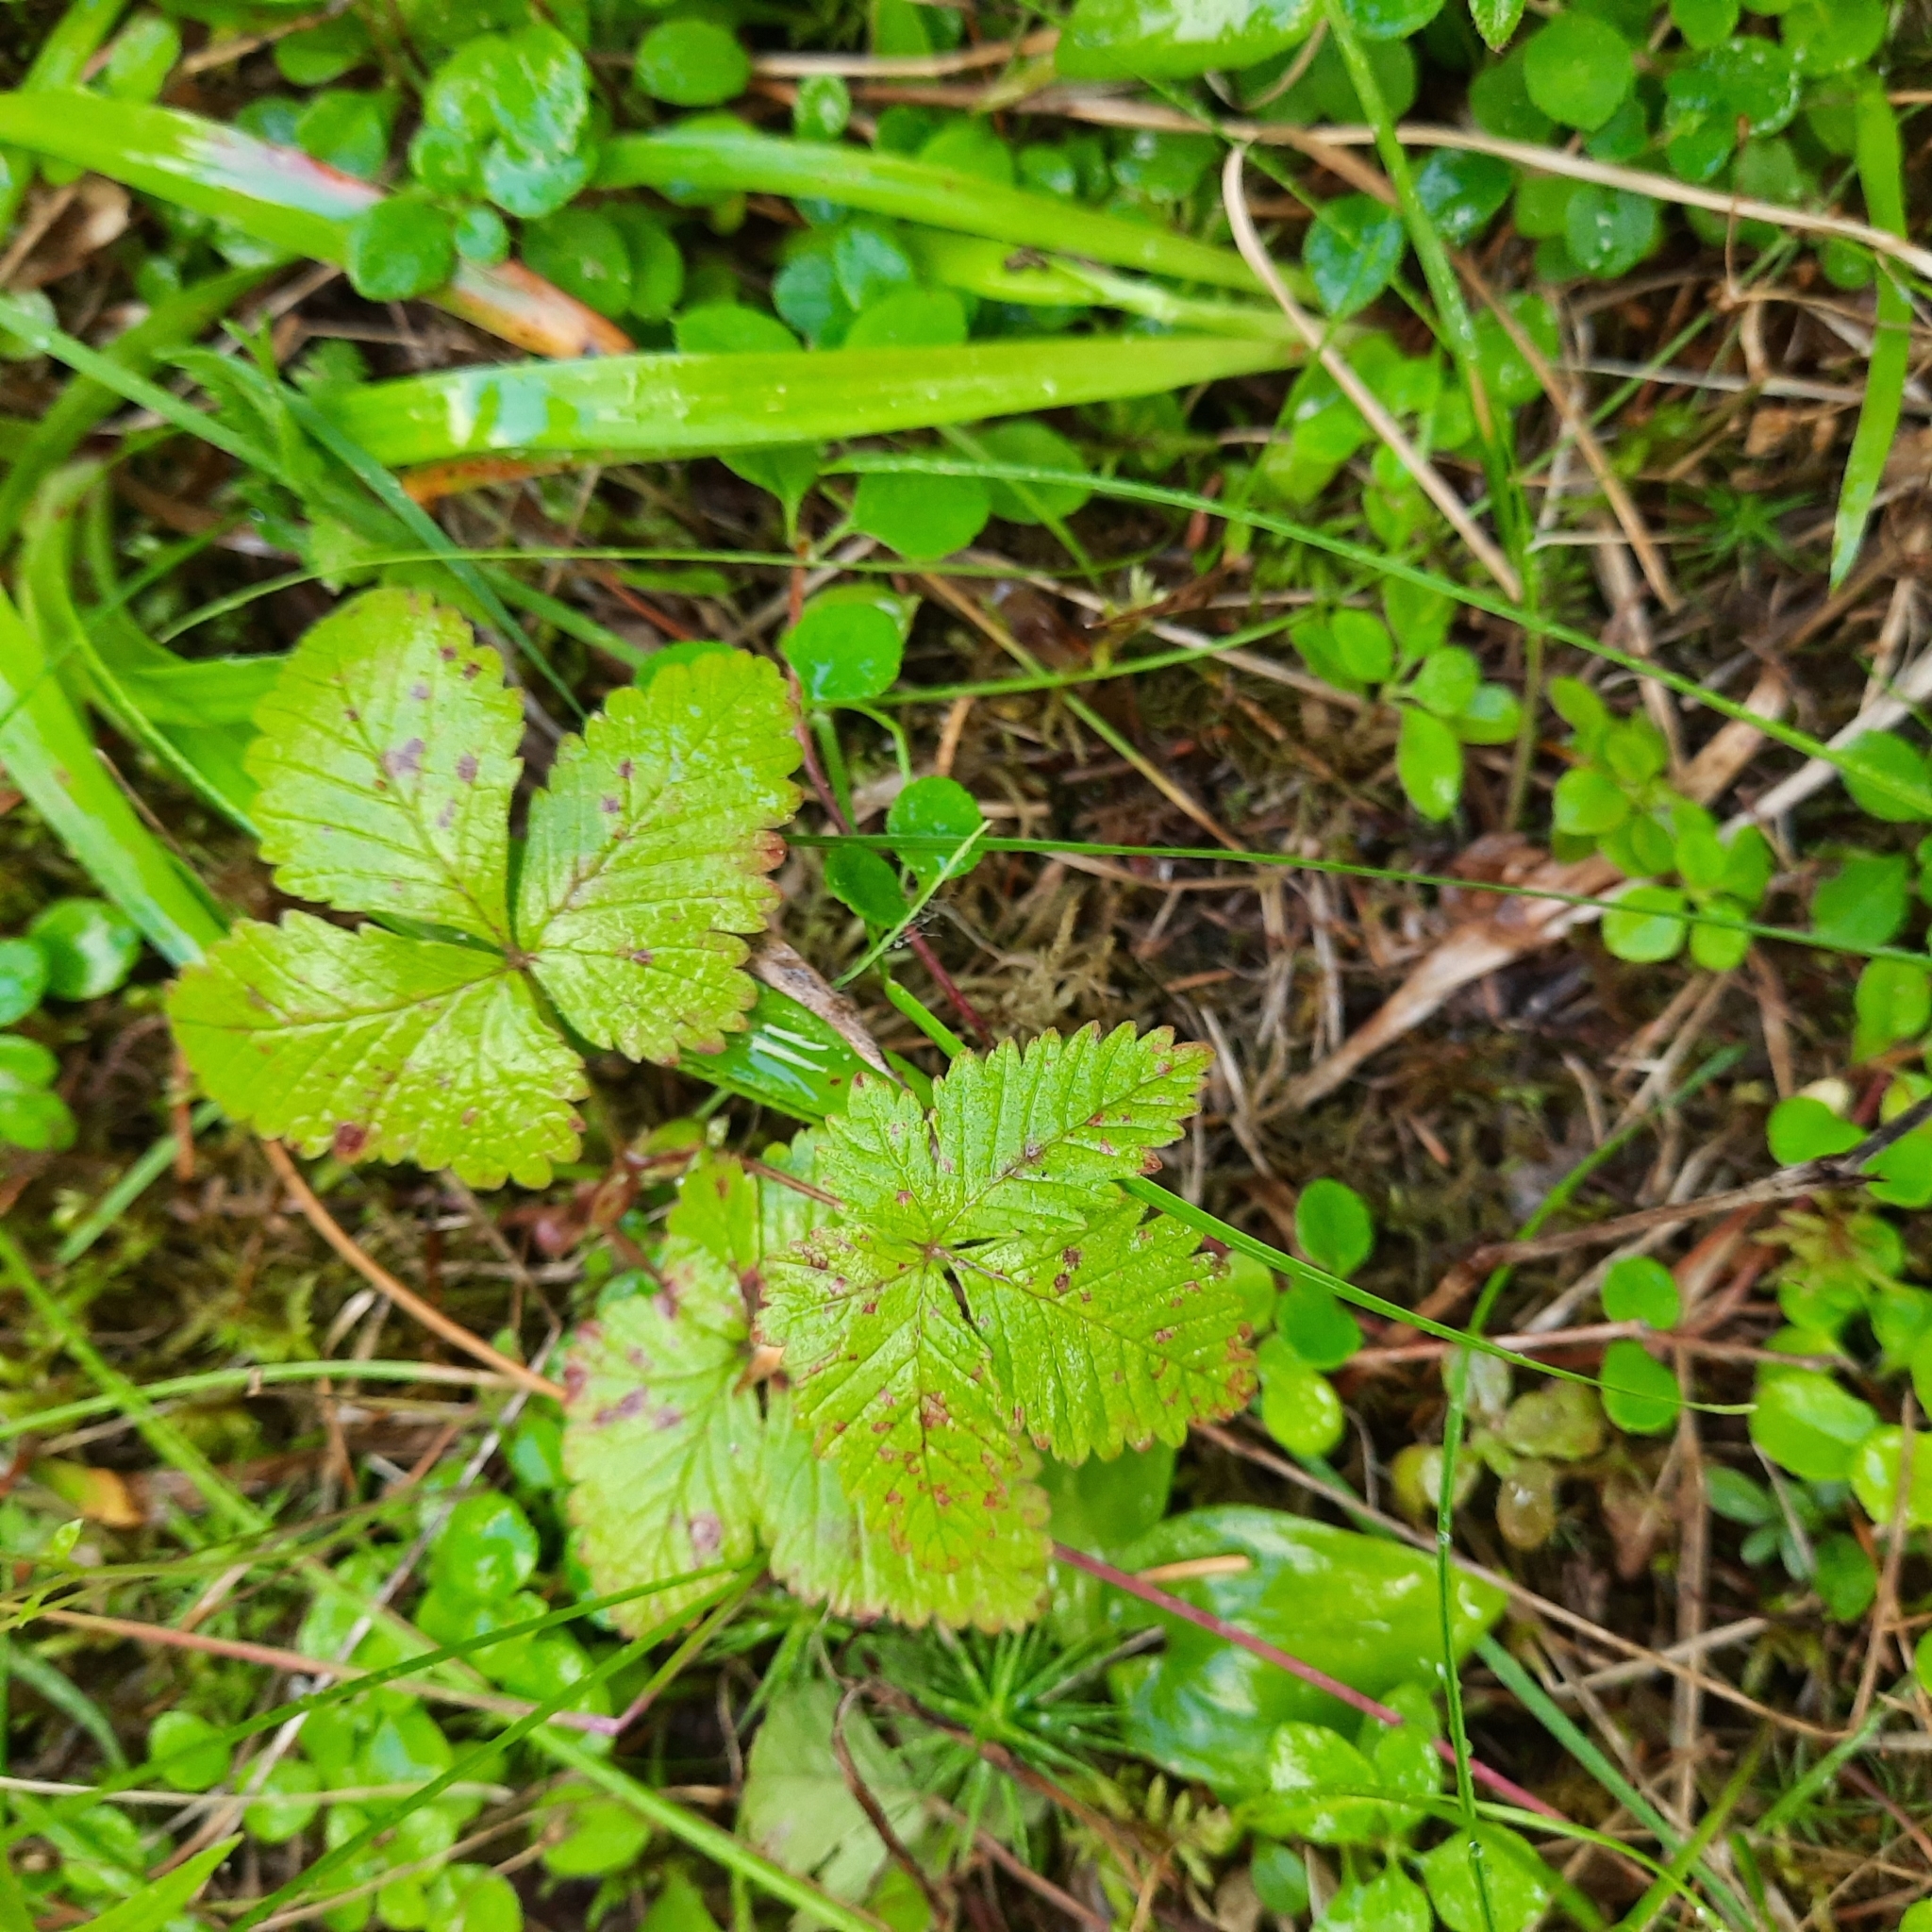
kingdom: Plantae
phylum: Tracheophyta
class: Magnoliopsida
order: Rosales
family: Rosaceae
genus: Rubus
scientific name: Rubus arcticus
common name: Arctic bramble
